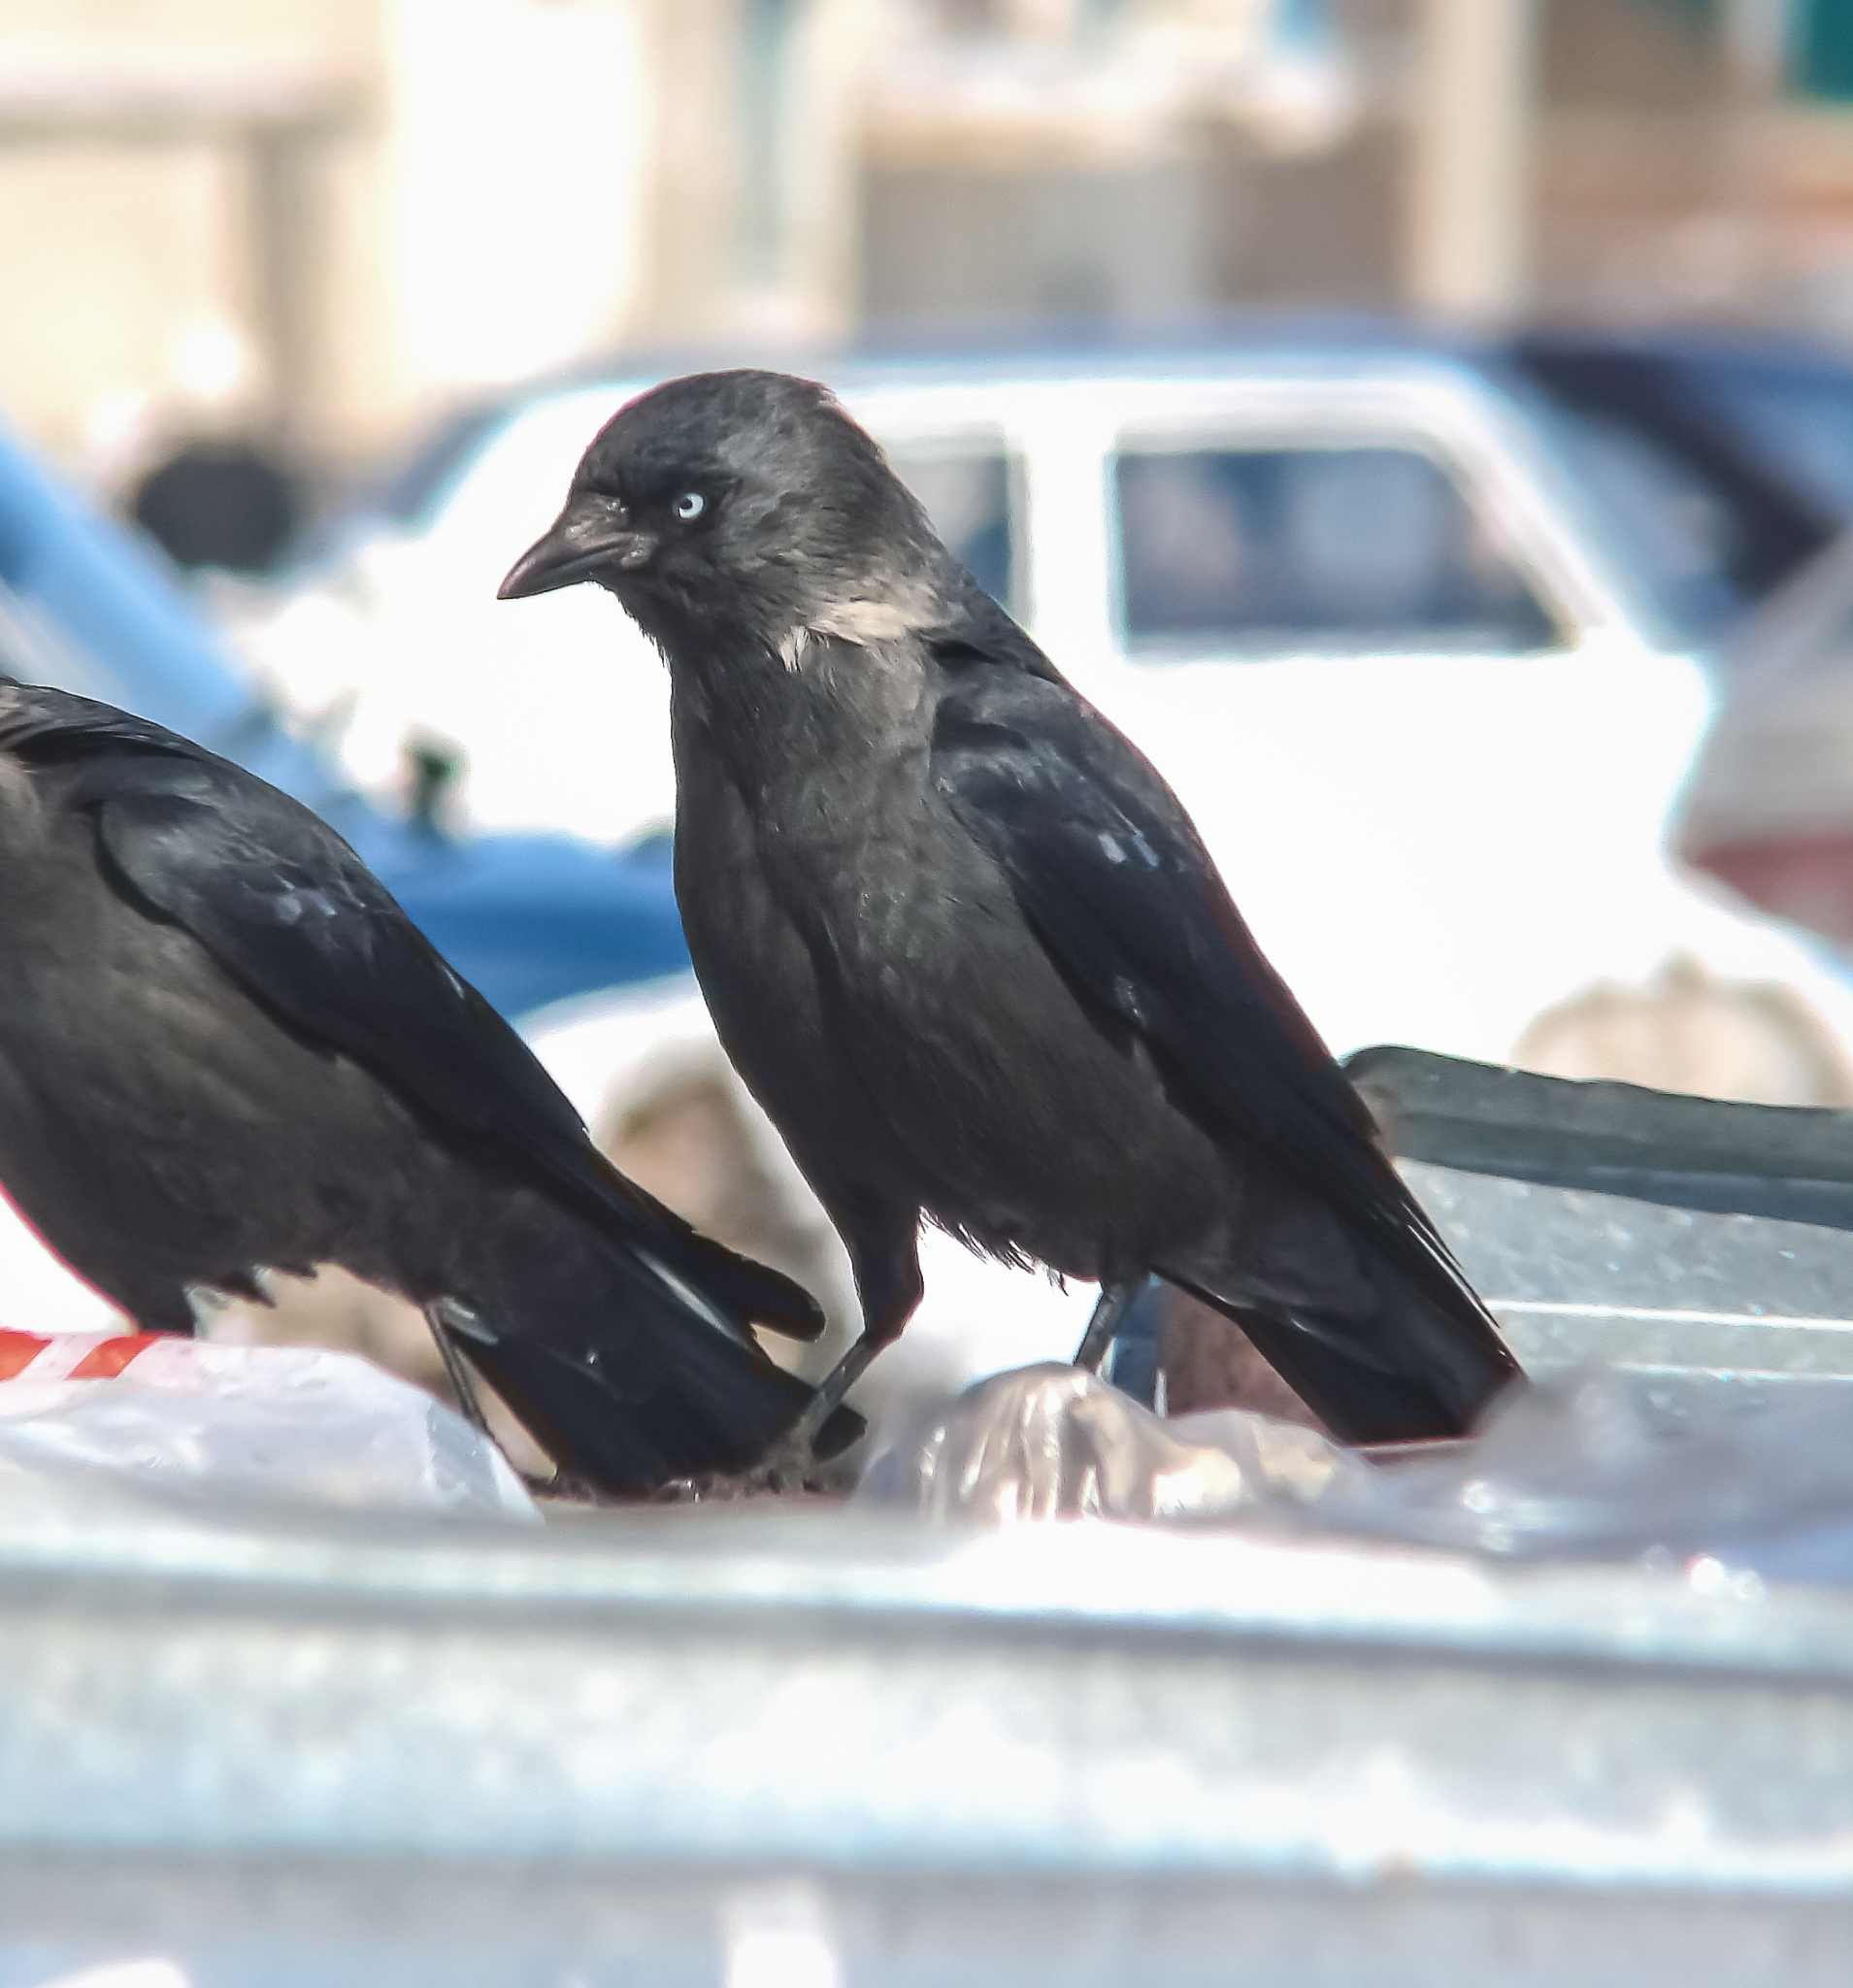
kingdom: Animalia
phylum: Chordata
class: Aves
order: Passeriformes
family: Corvidae
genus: Coloeus
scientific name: Coloeus monedula
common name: Western jackdaw
